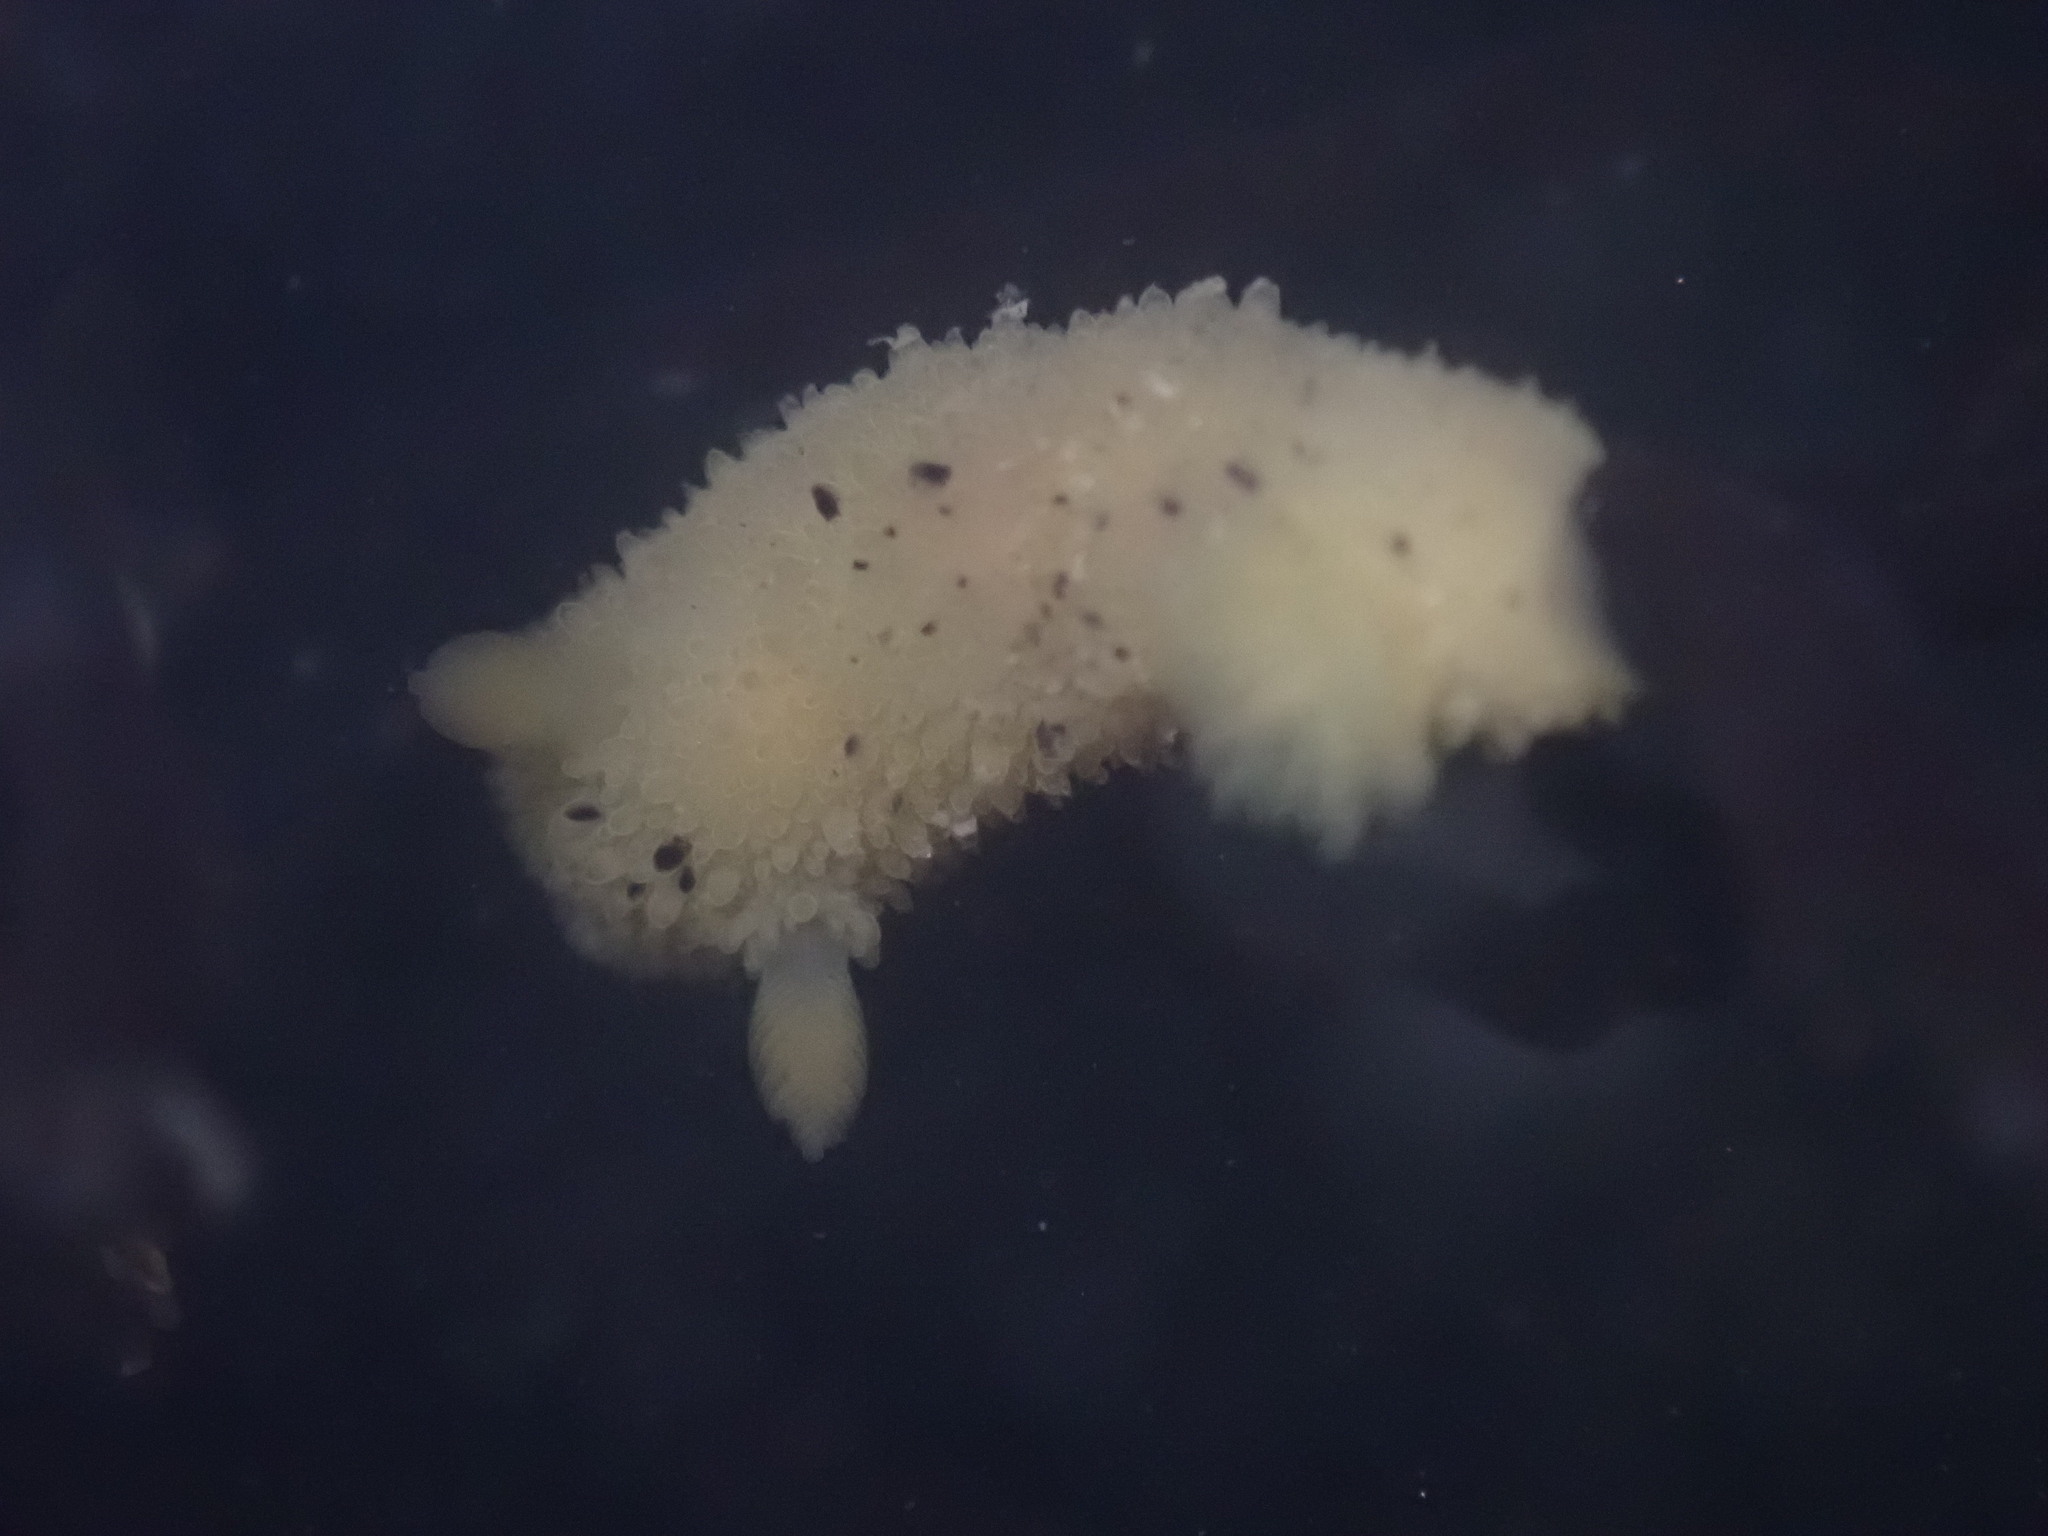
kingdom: Animalia
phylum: Mollusca
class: Gastropoda
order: Nudibranchia
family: Dorididae
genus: Doris
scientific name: Doris montereyensis
